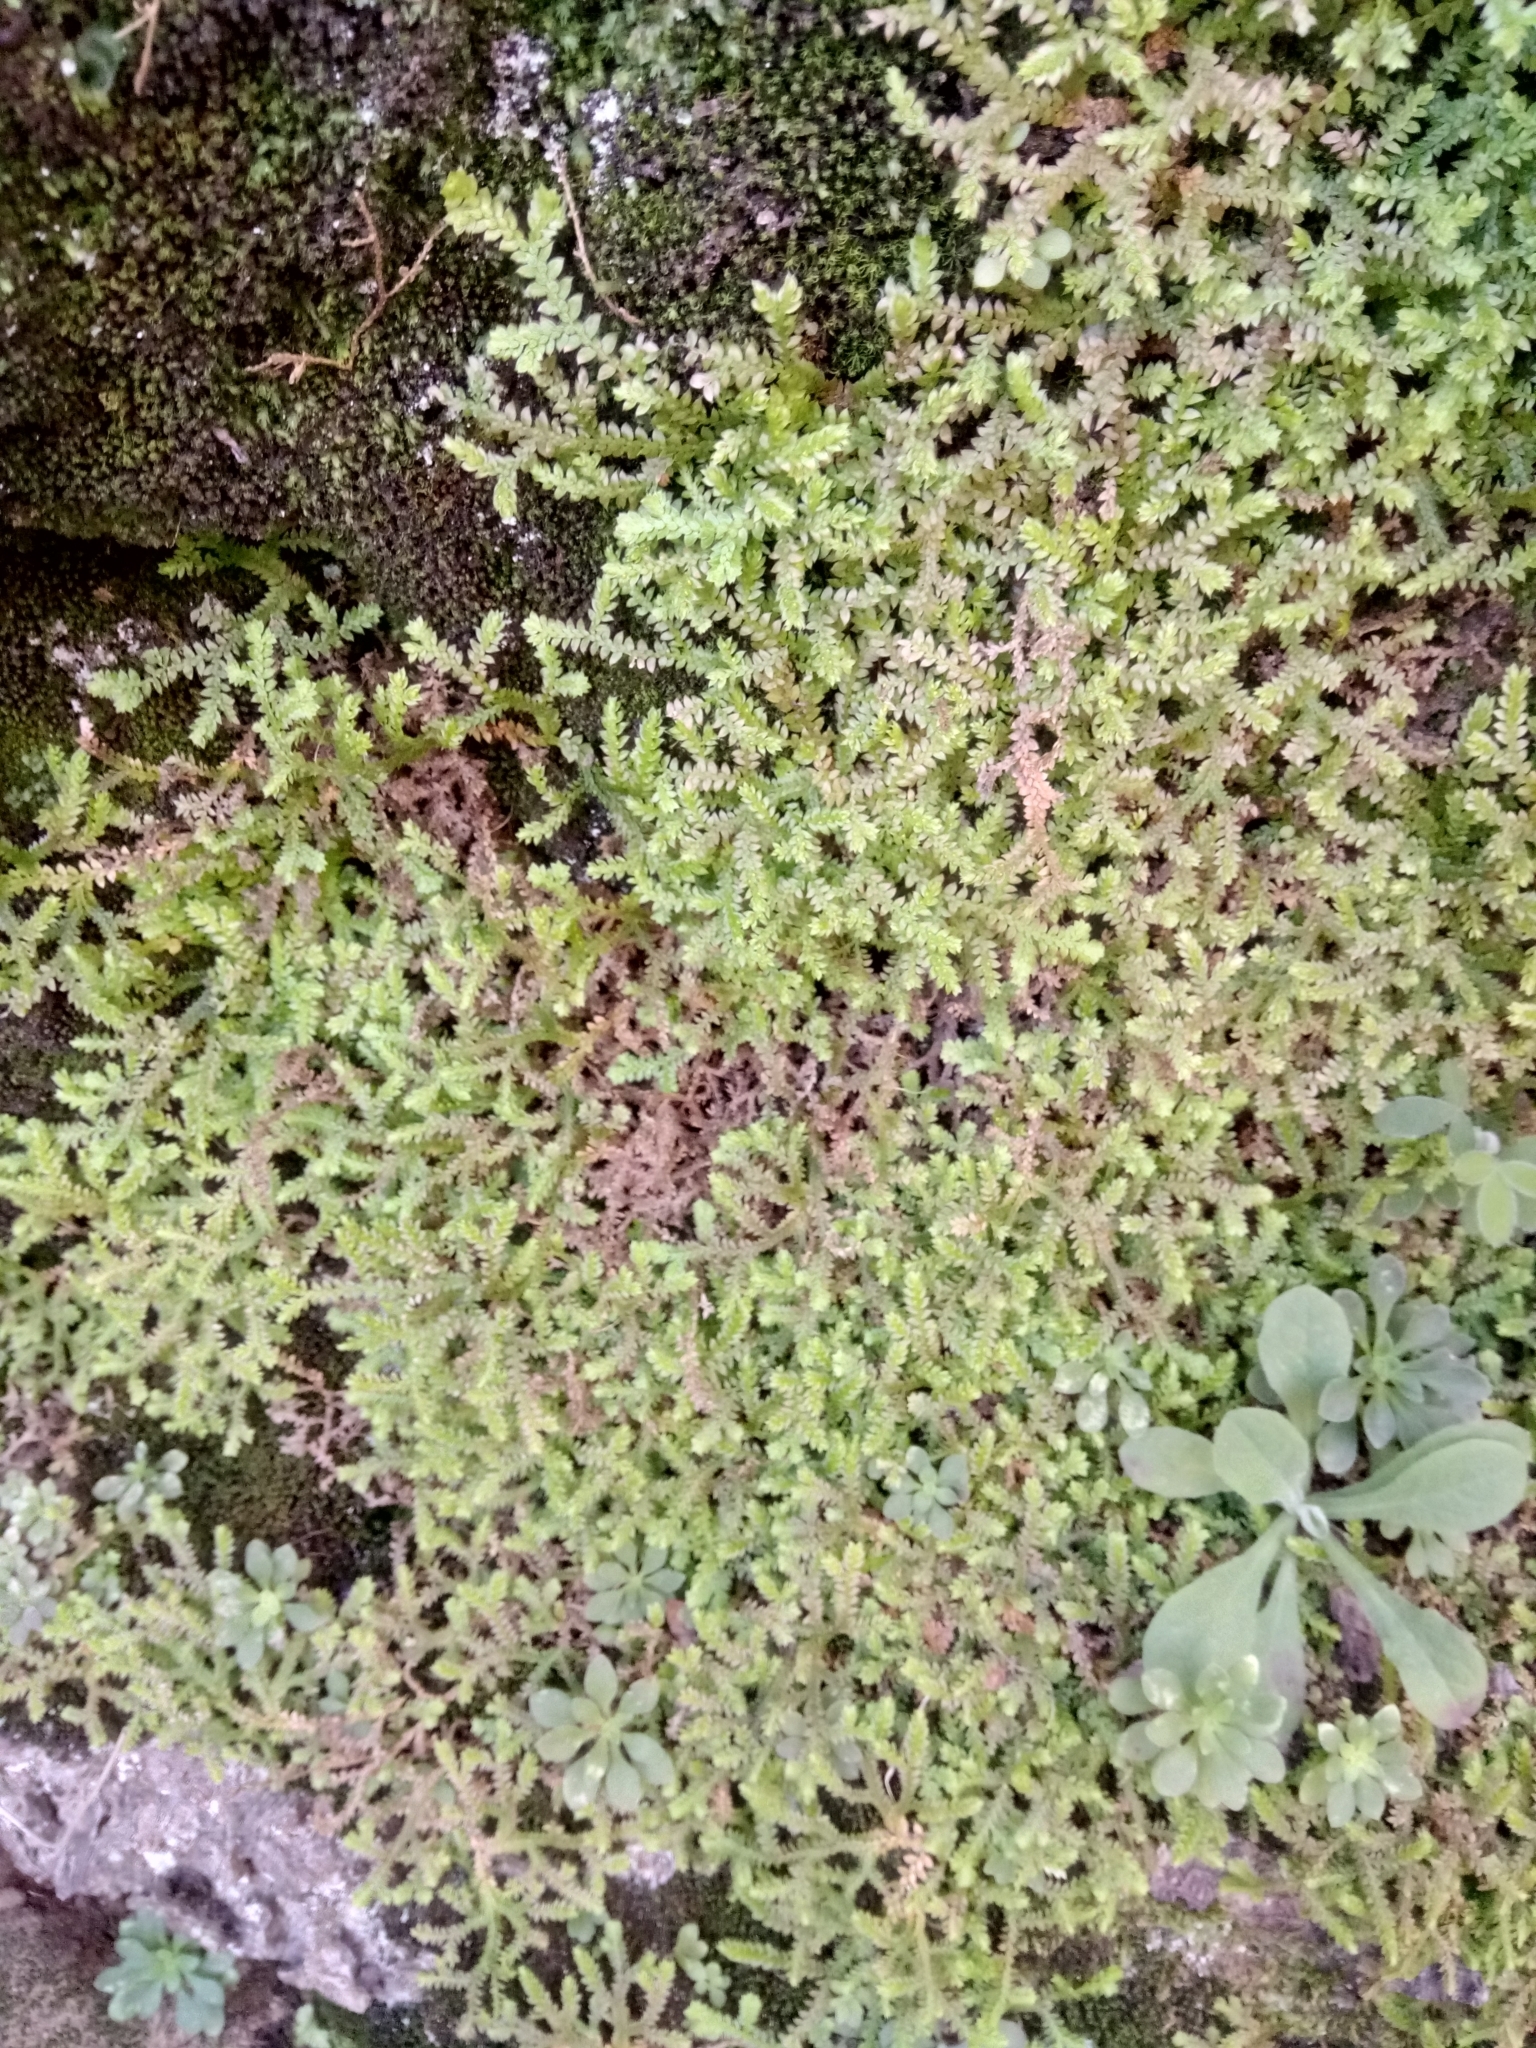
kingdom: Plantae
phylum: Tracheophyta
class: Lycopodiopsida
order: Selaginellales
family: Selaginellaceae
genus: Selaginella
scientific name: Selaginella denticulata
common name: Toothed-leaved clubmoss
